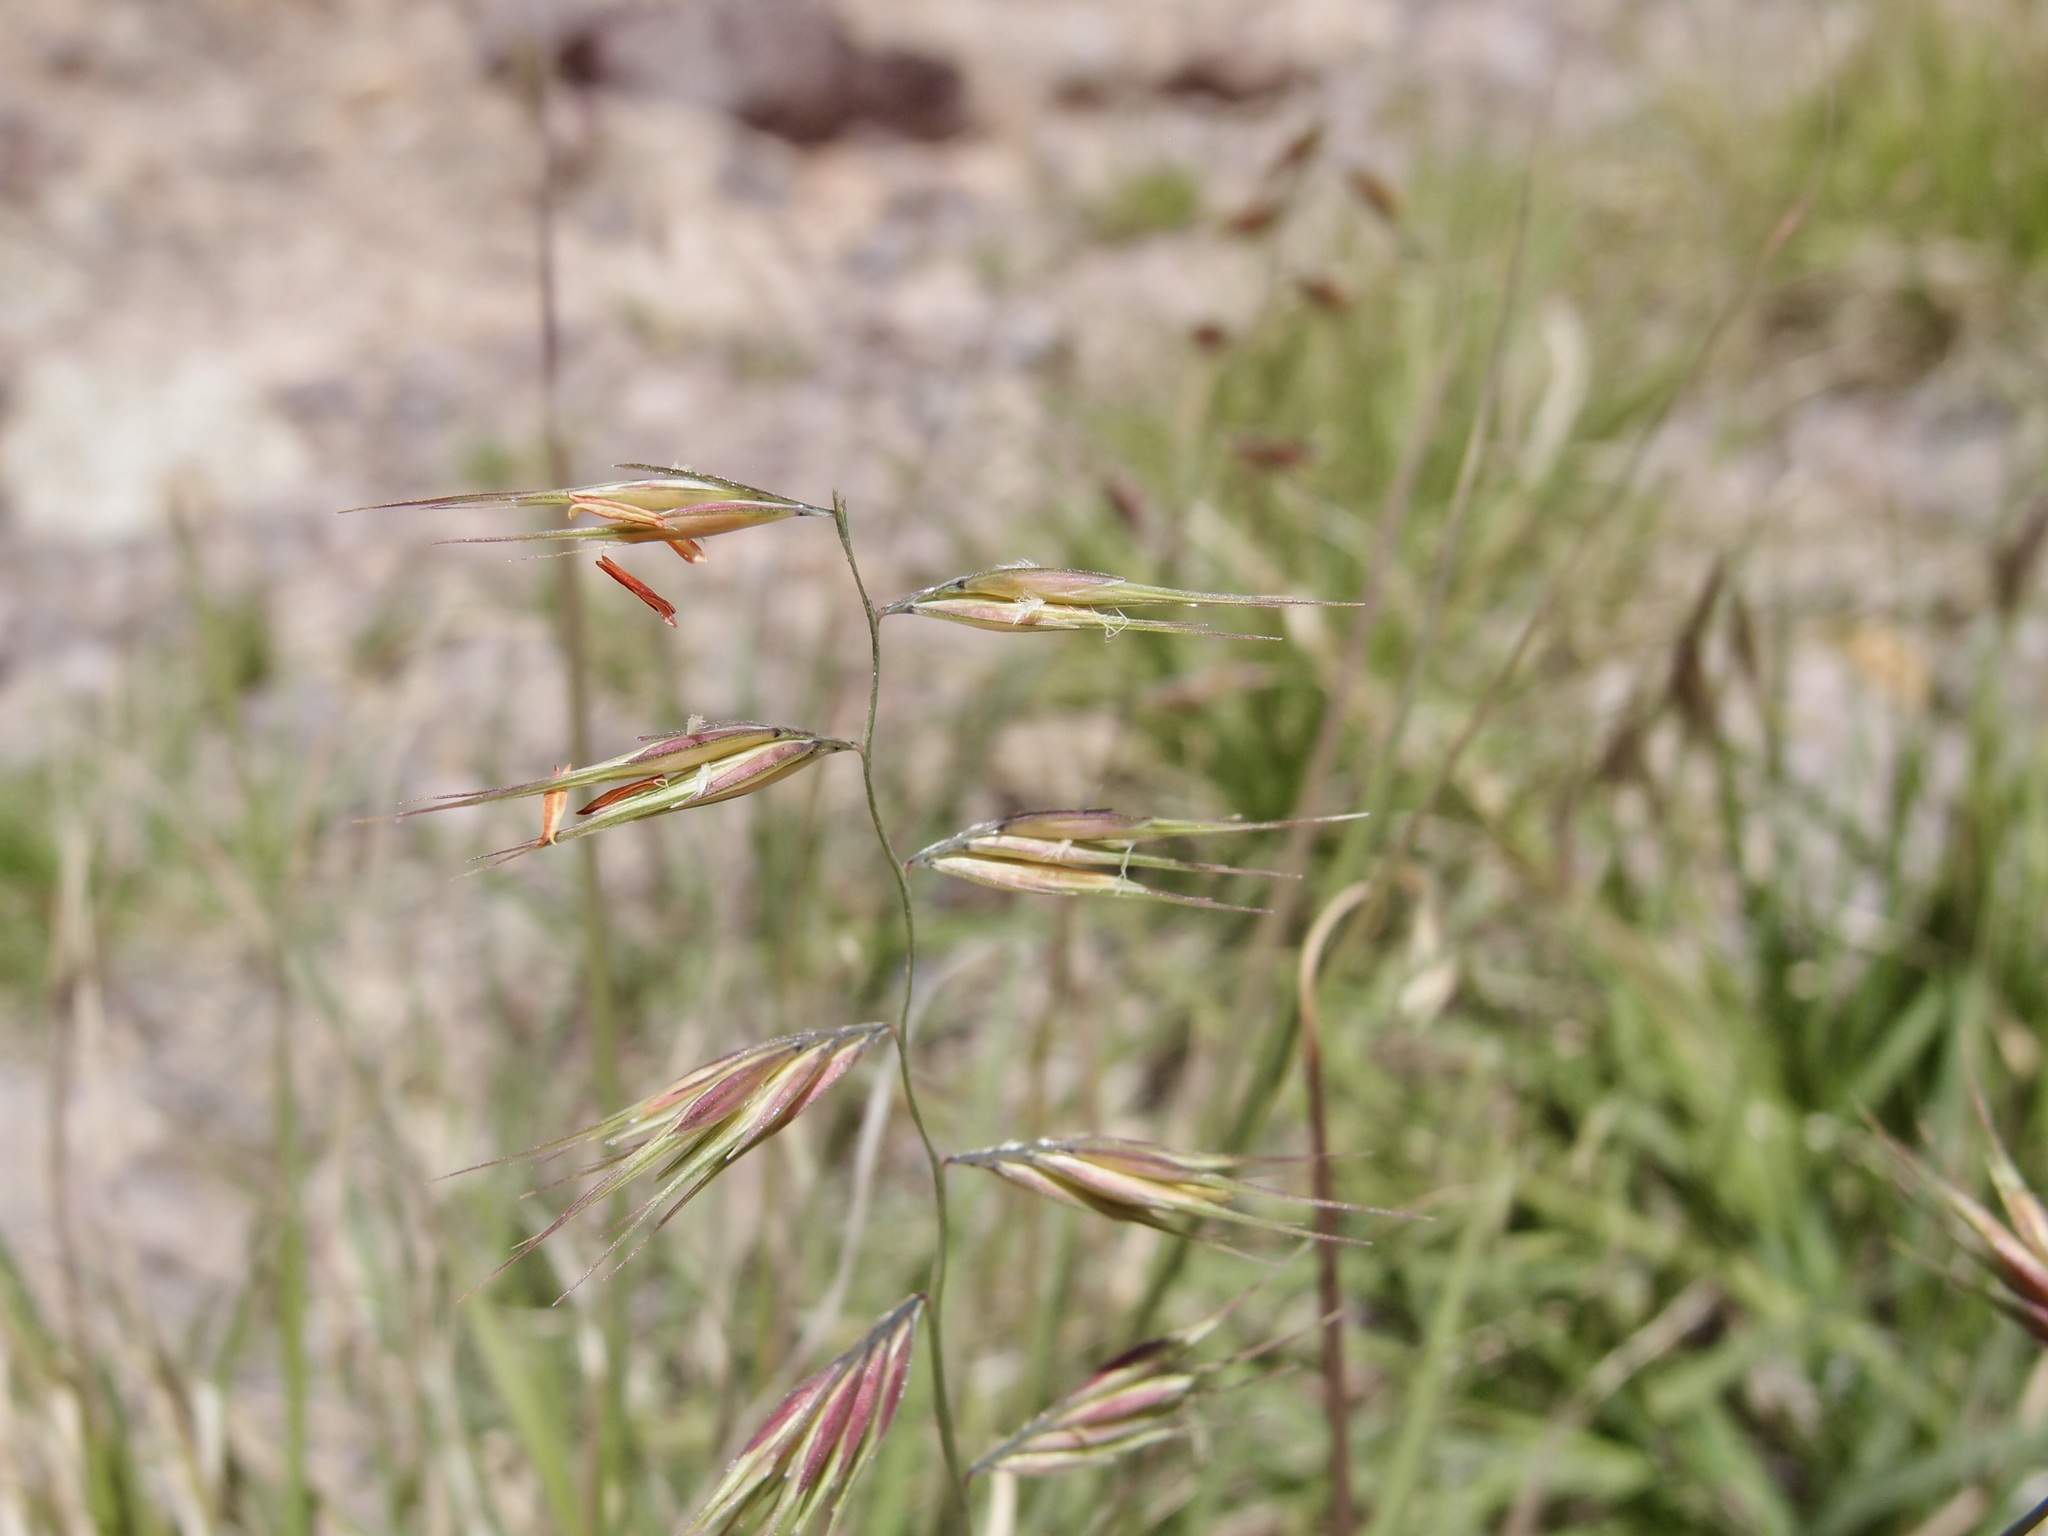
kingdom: Plantae
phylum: Tracheophyta
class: Liliopsida
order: Poales
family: Poaceae
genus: Bouteloua
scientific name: Bouteloua repens
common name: Slender grama
